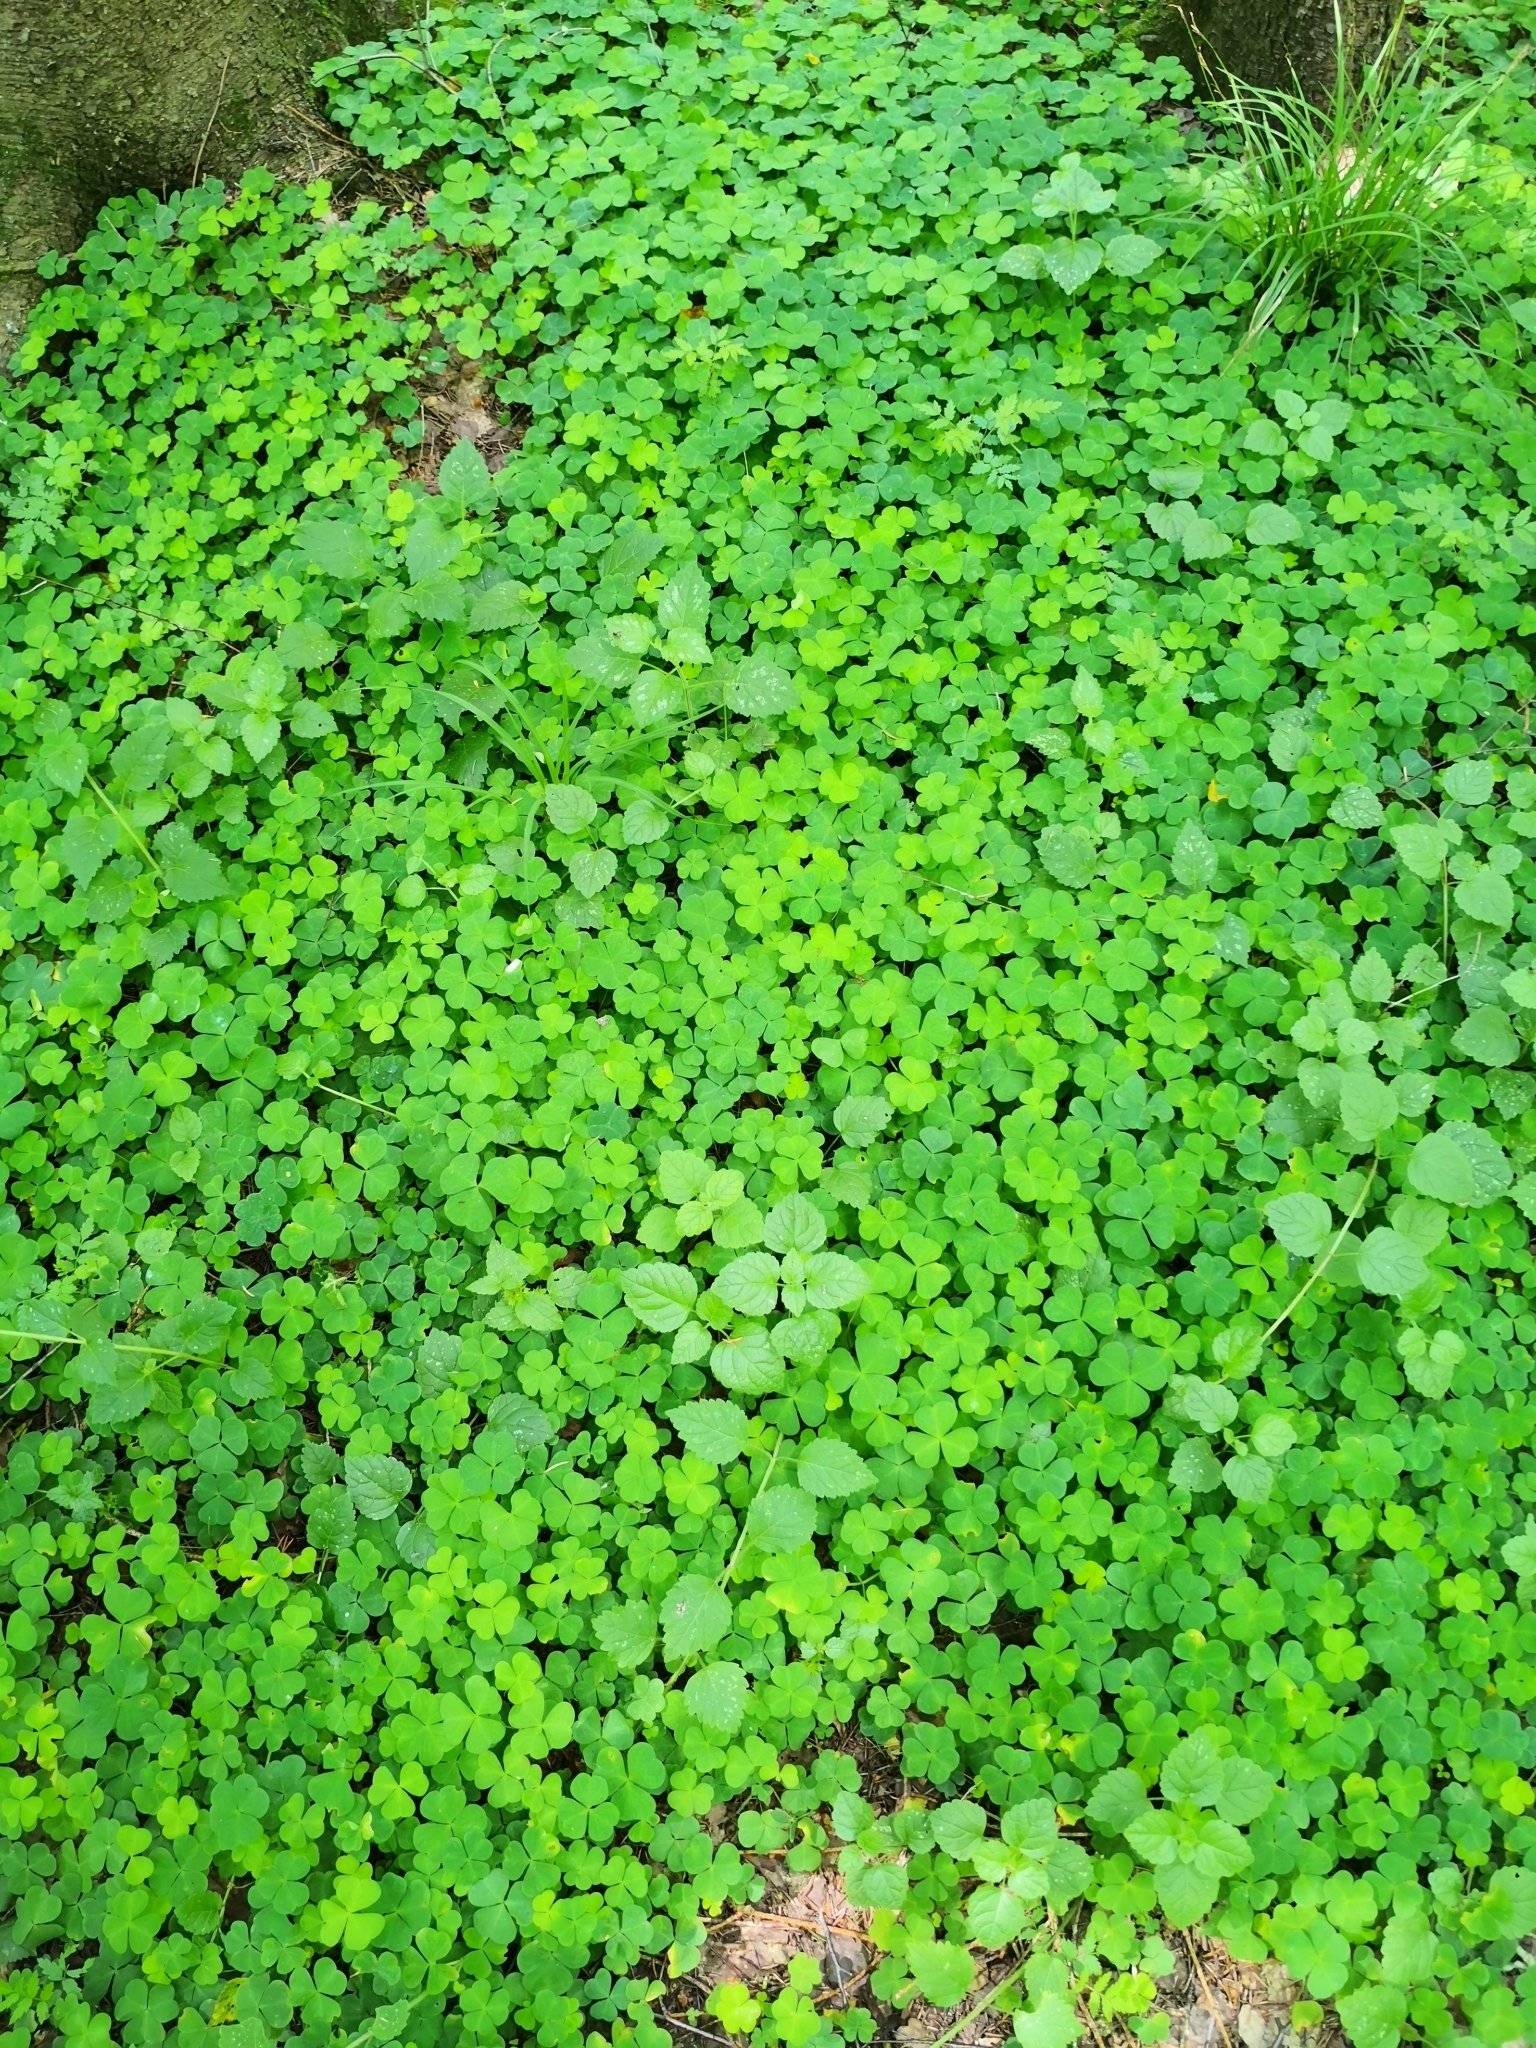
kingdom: Plantae
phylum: Tracheophyta
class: Magnoliopsida
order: Oxalidales
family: Oxalidaceae
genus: Oxalis
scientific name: Oxalis acetosella
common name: Wood-sorrel
